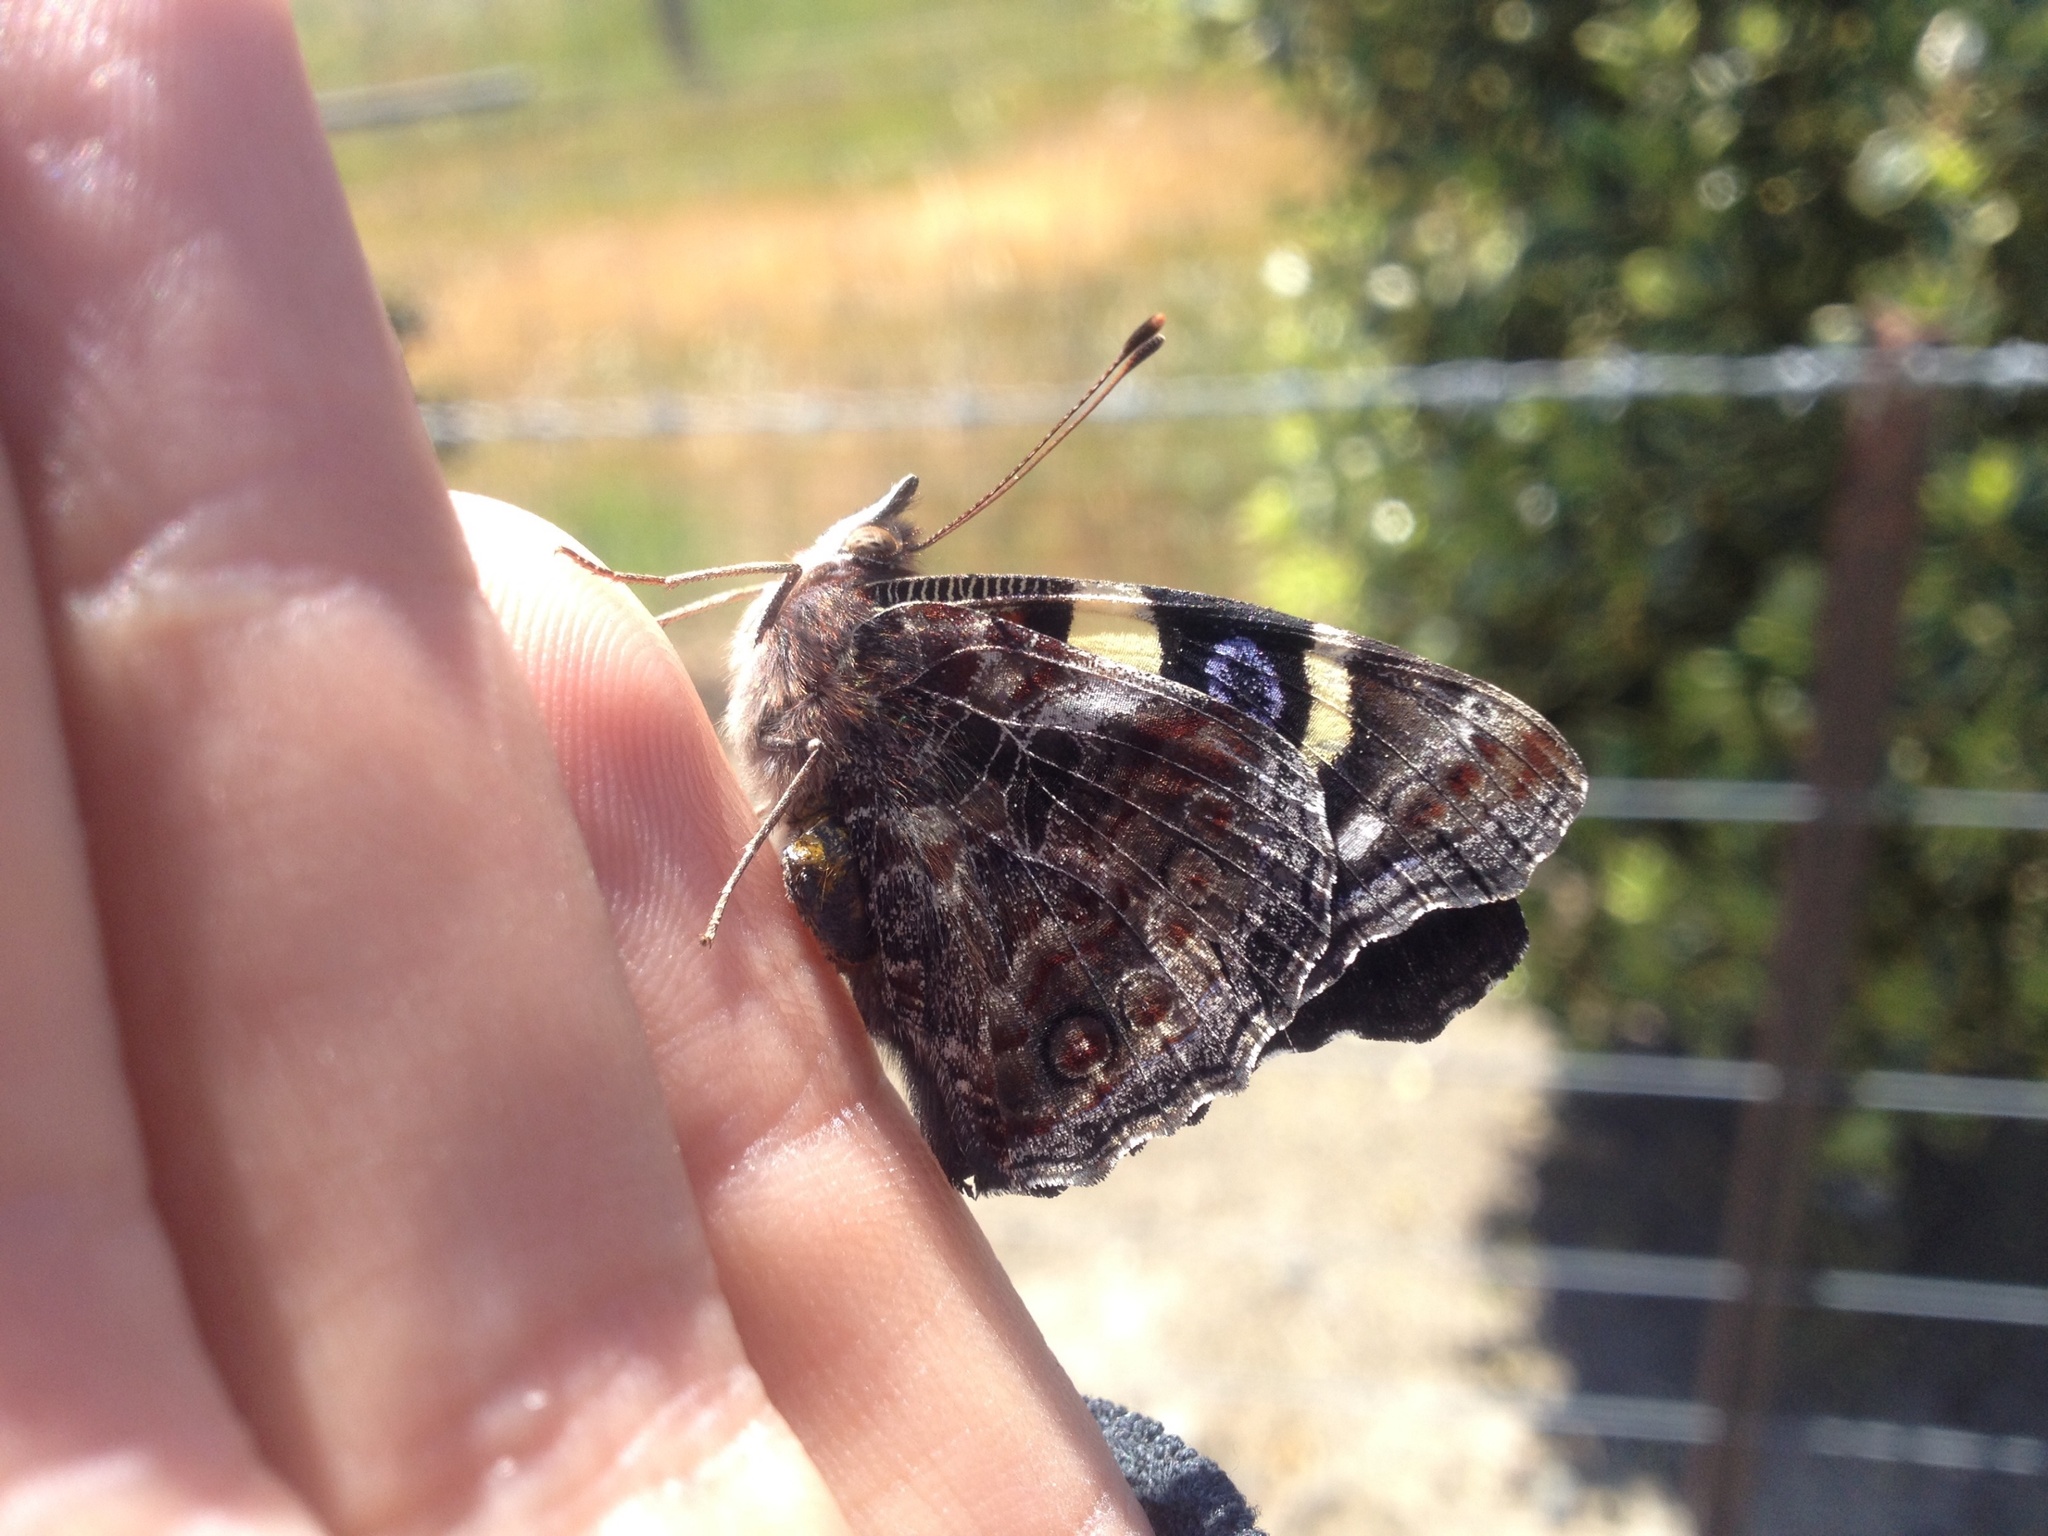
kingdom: Animalia
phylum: Arthropoda
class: Insecta
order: Lepidoptera
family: Nymphalidae
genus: Vanessa
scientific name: Vanessa itea
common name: Yellow admiral
